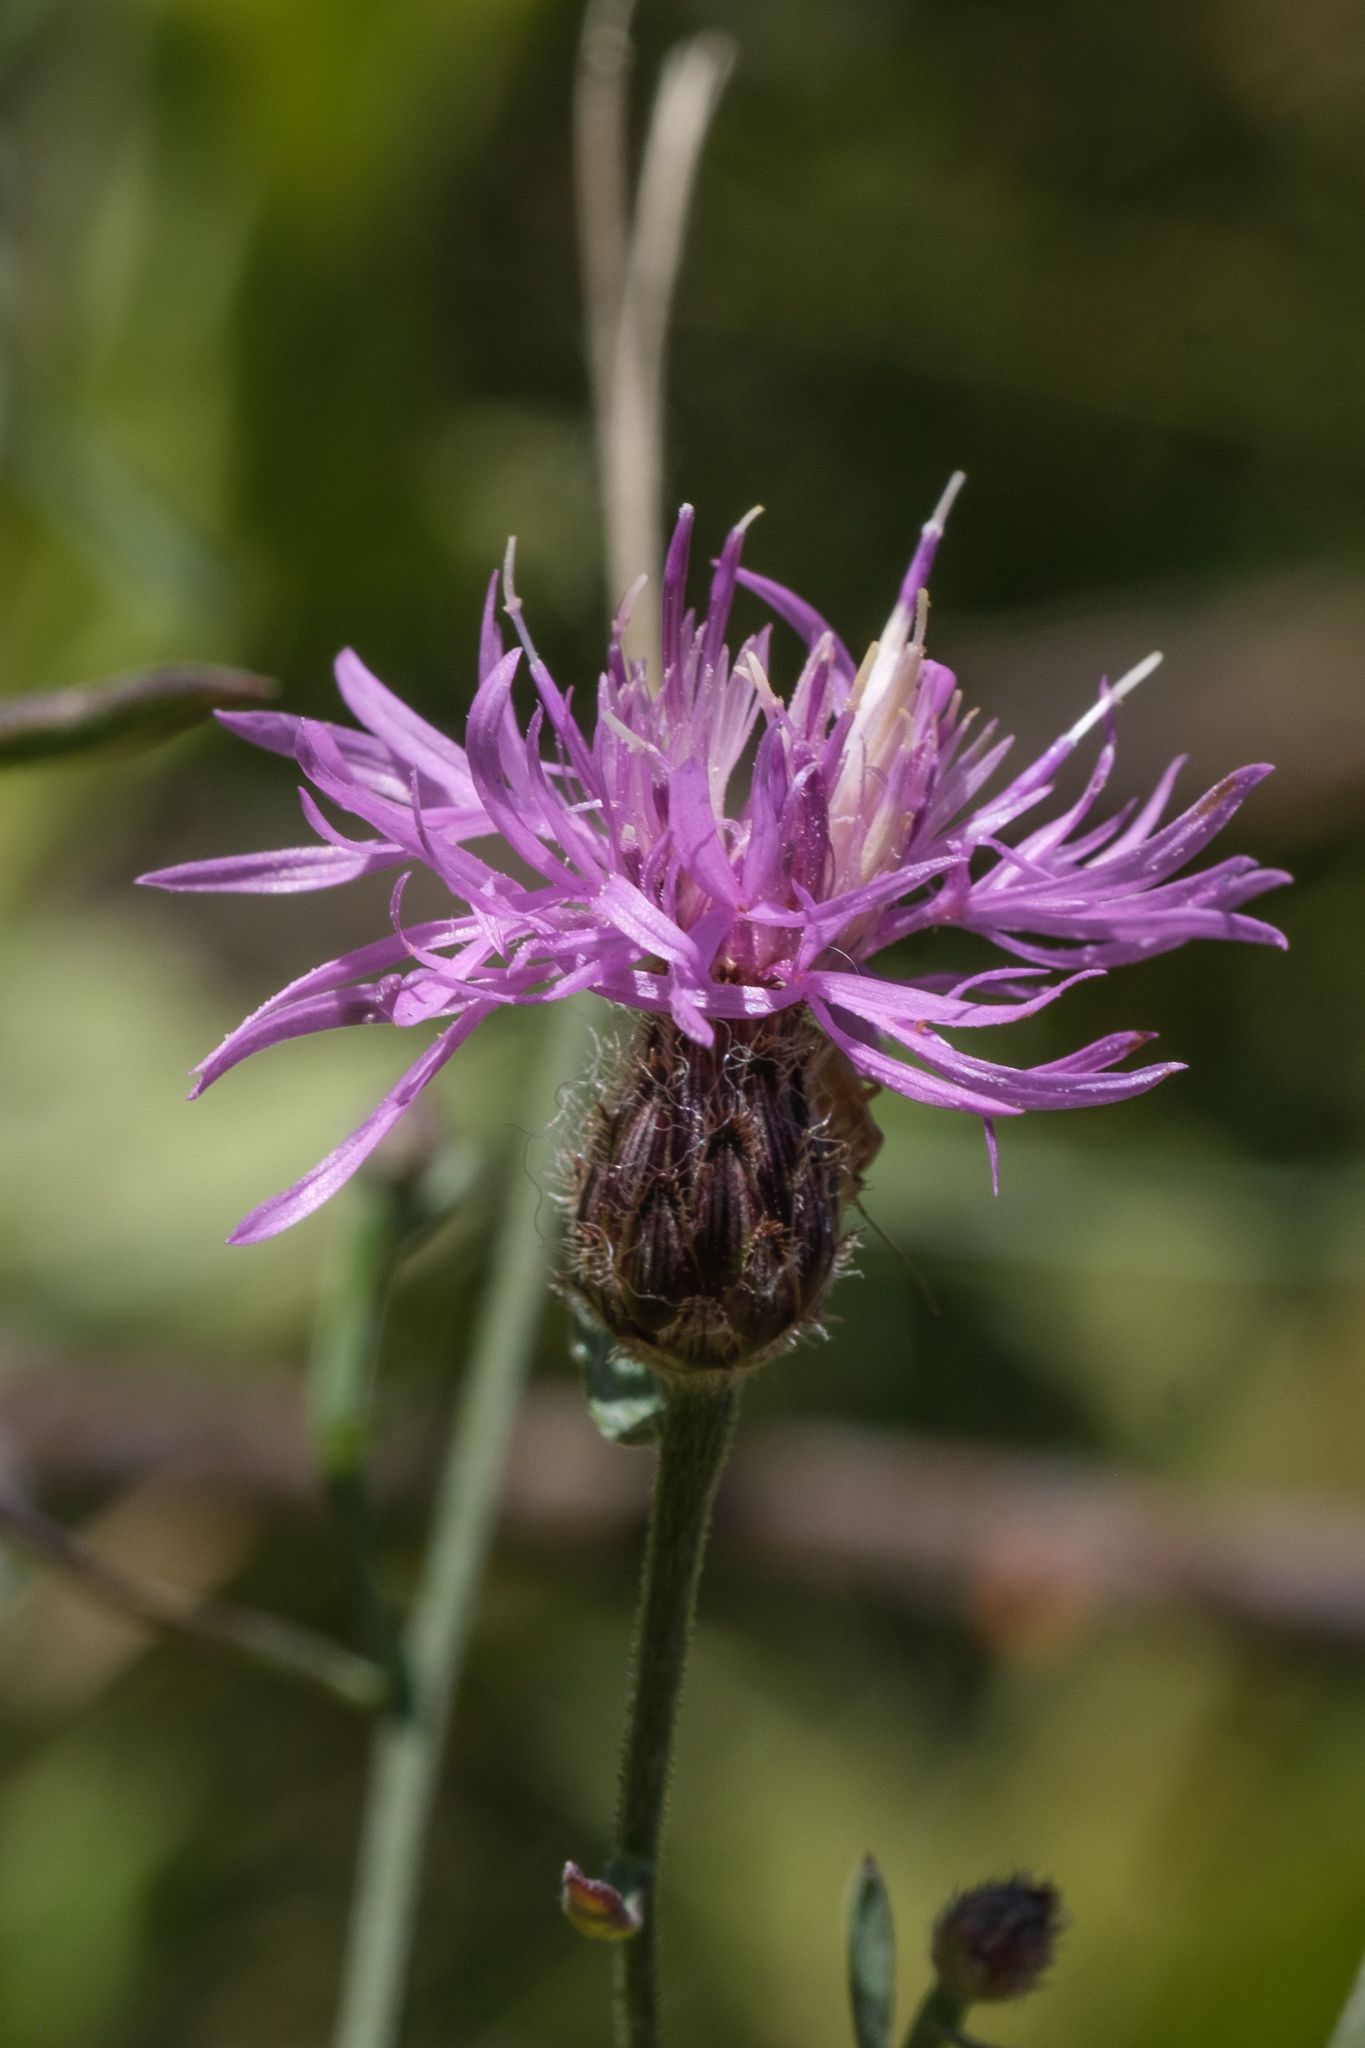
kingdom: Plantae
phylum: Tracheophyta
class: Magnoliopsida
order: Asterales
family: Asteraceae
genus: Centaurea
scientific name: Centaurea stoebe
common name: Spotted knapweed
